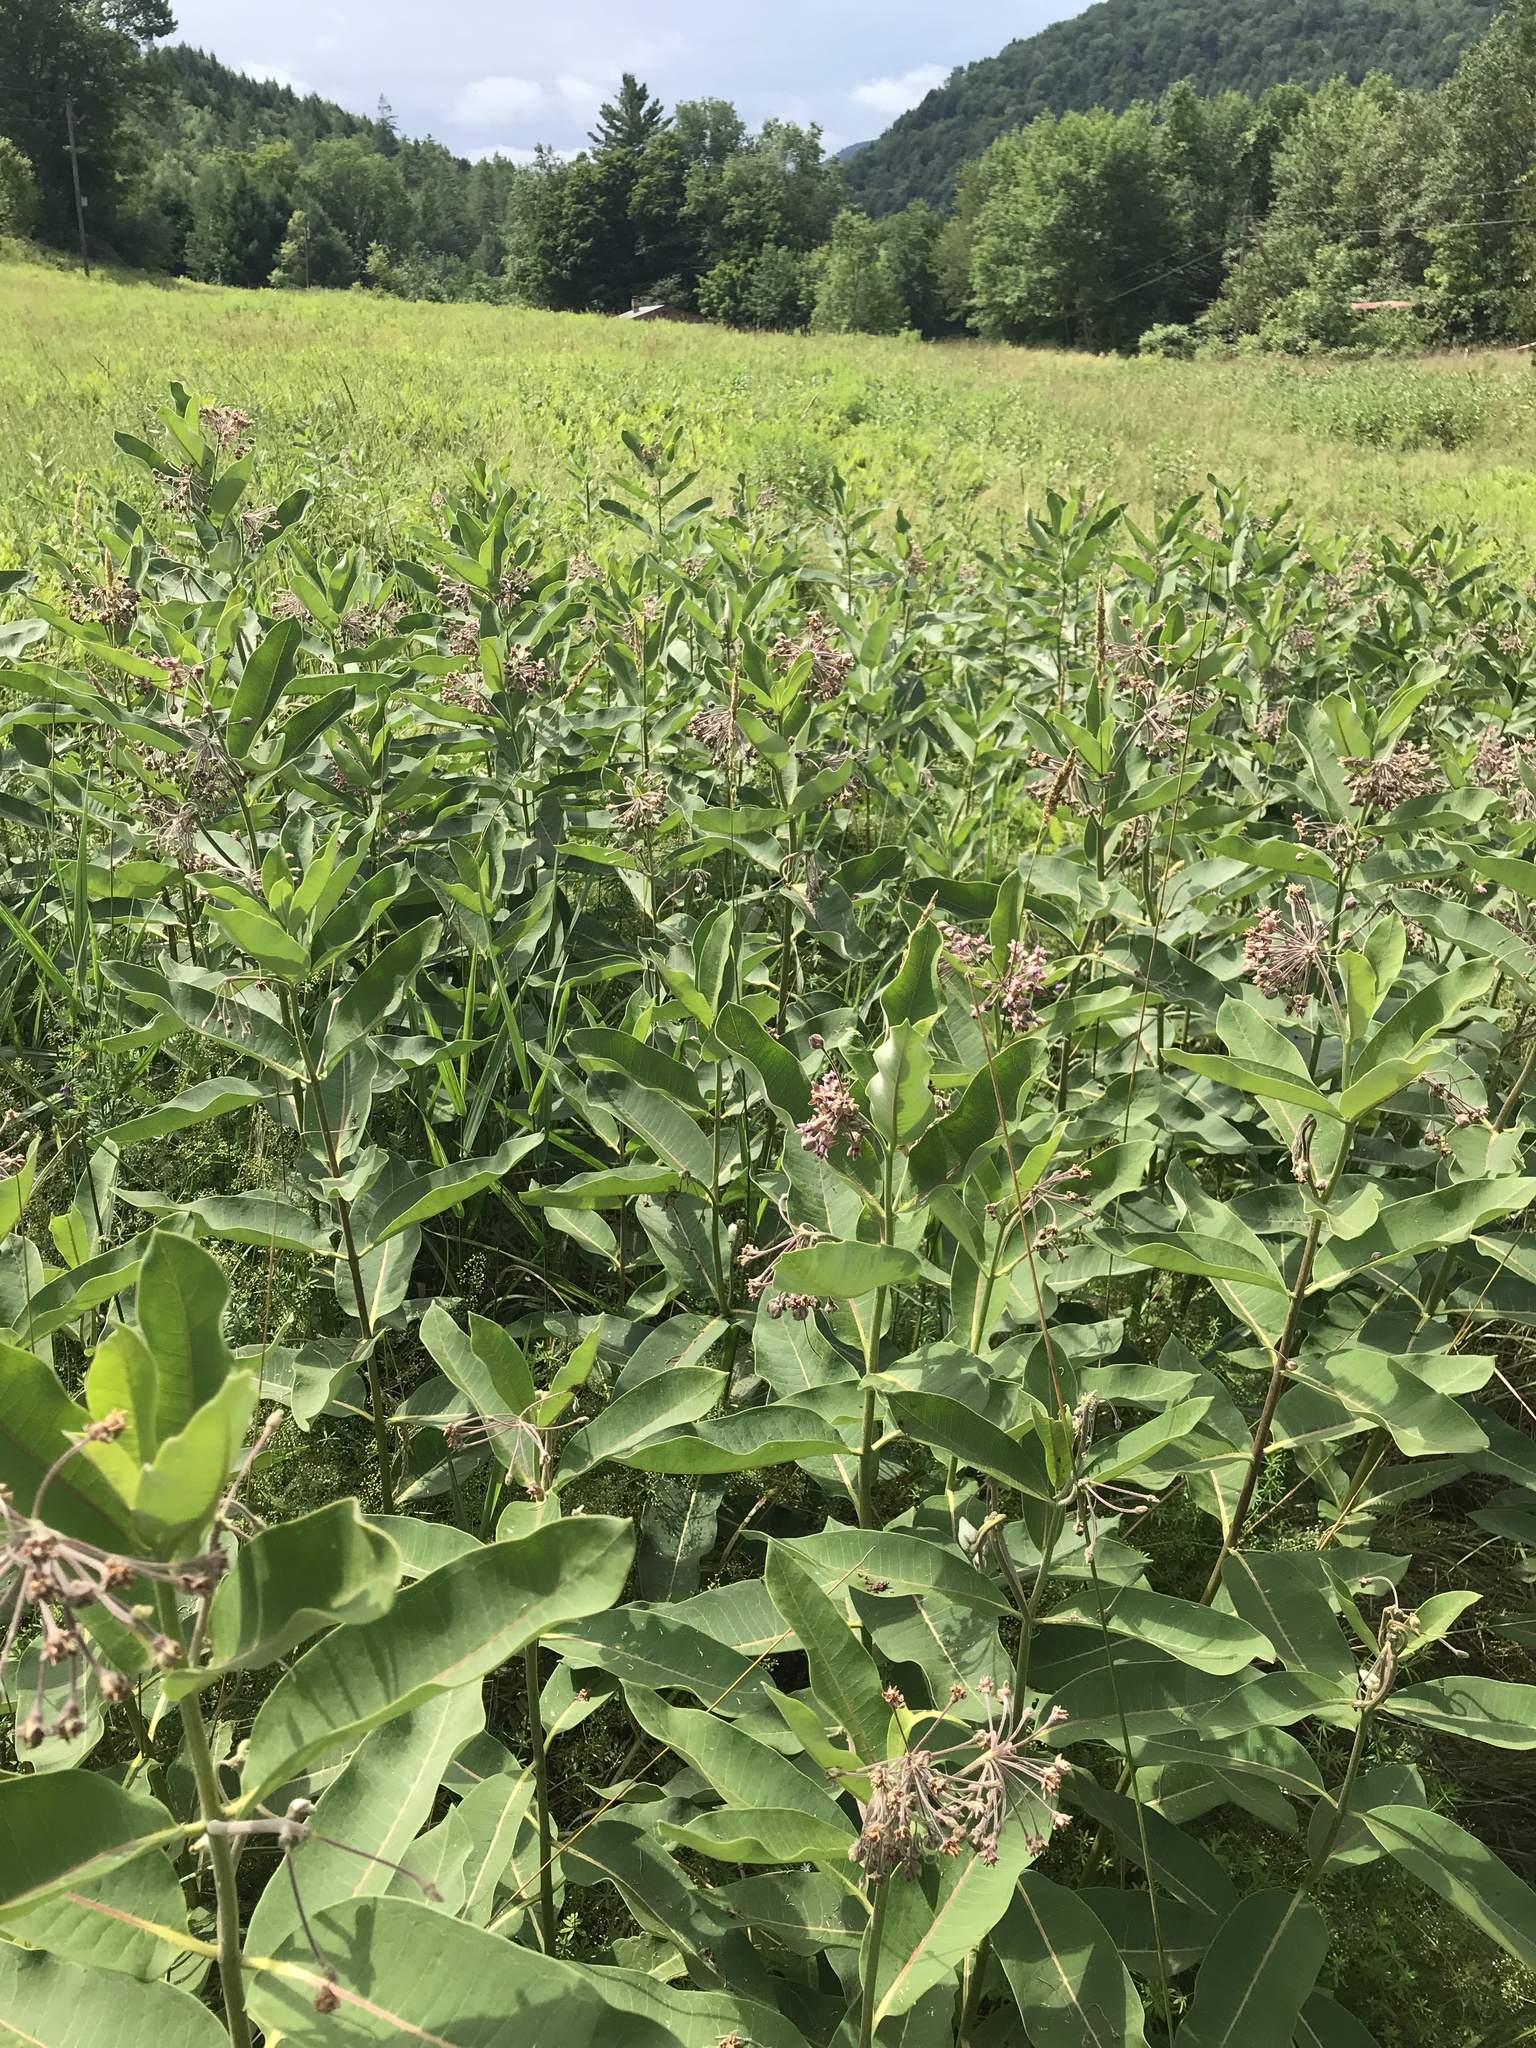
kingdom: Plantae
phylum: Tracheophyta
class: Magnoliopsida
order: Gentianales
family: Apocynaceae
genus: Asclepias
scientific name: Asclepias syriaca
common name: Common milkweed
